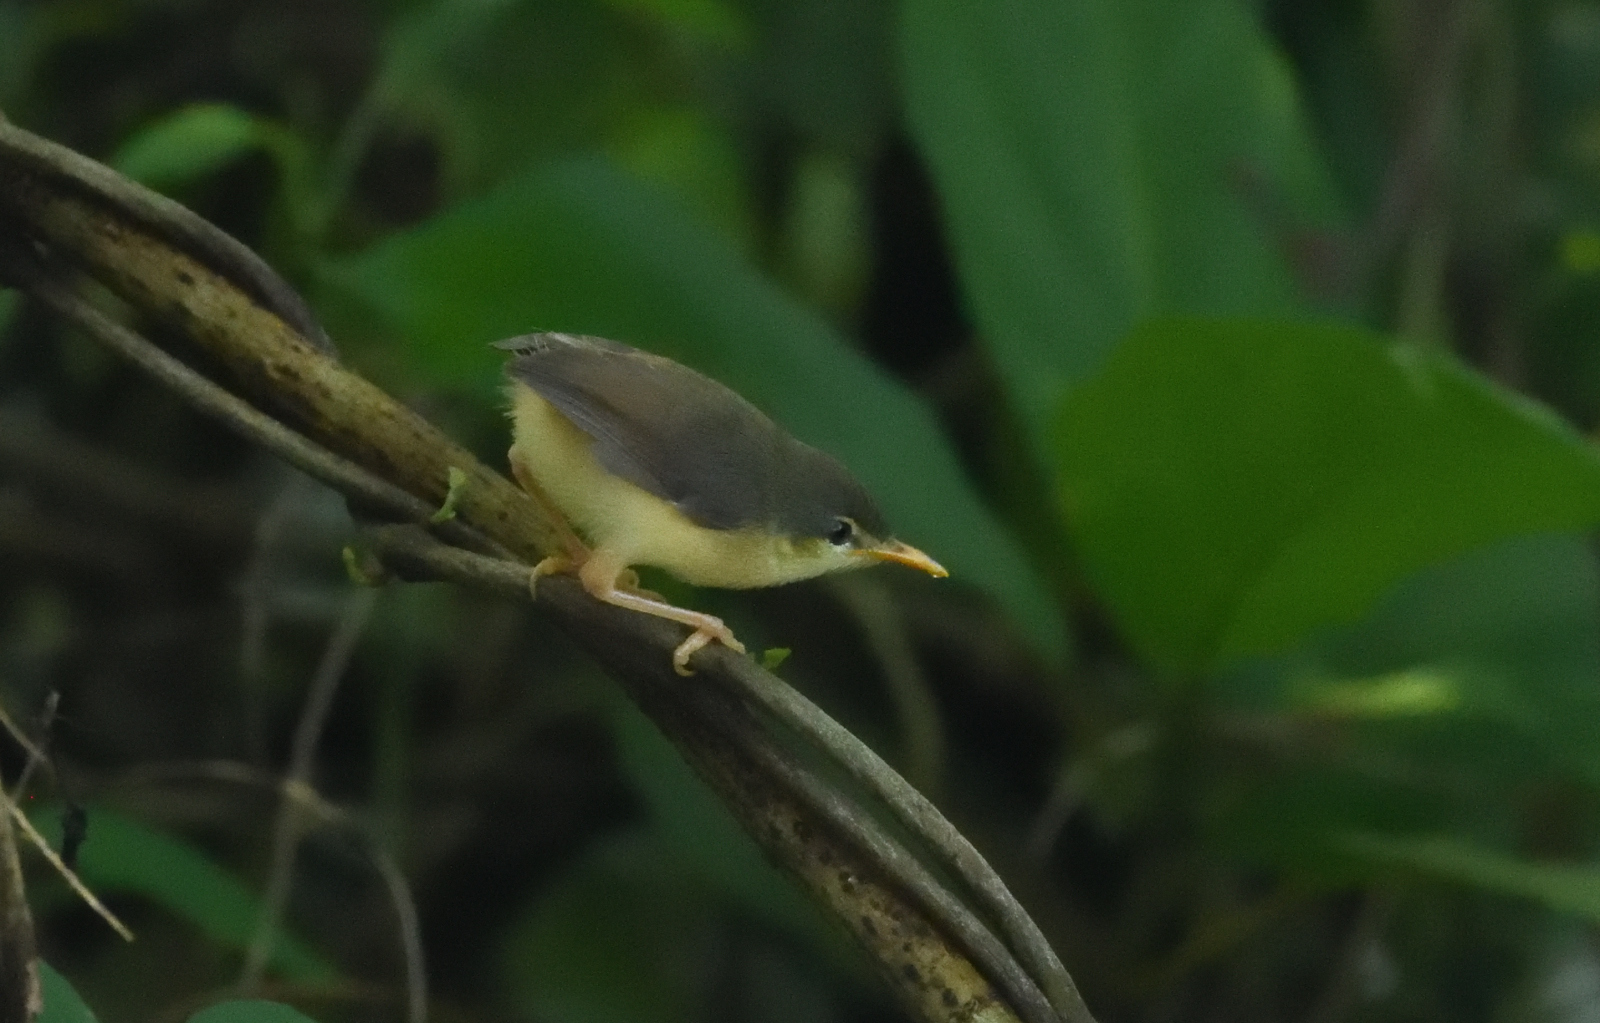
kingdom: Animalia
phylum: Chordata
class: Aves
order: Passeriformes
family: Cisticolidae
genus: Prinia
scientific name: Prinia socialis
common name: Ashy prinia
